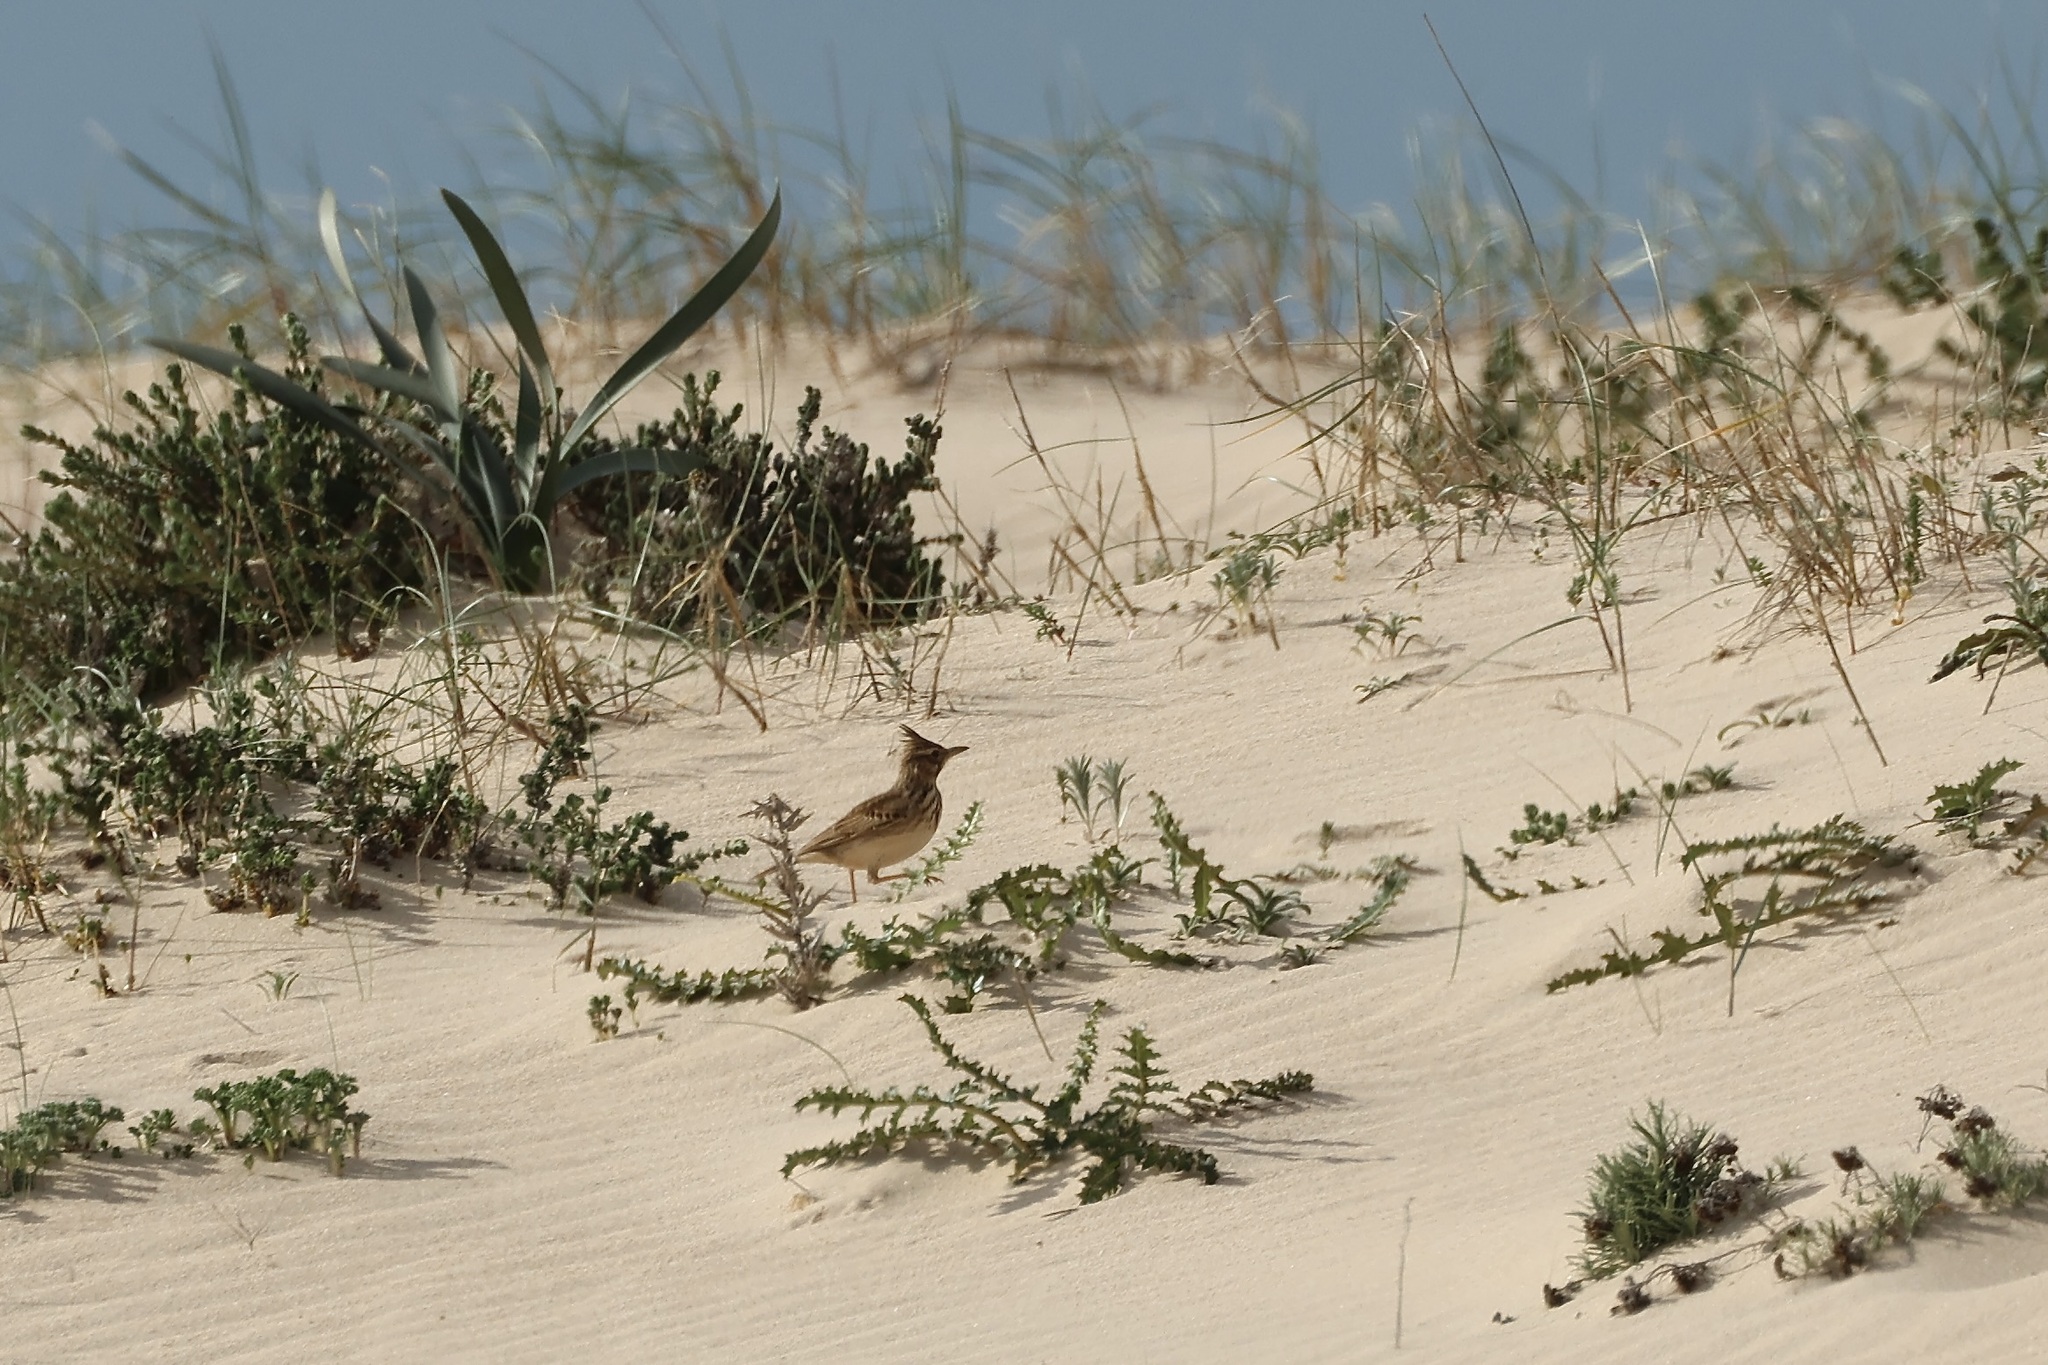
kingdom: Animalia
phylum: Chordata
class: Aves
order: Passeriformes
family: Alaudidae
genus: Galerida
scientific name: Galerida cristata
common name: Crested lark
